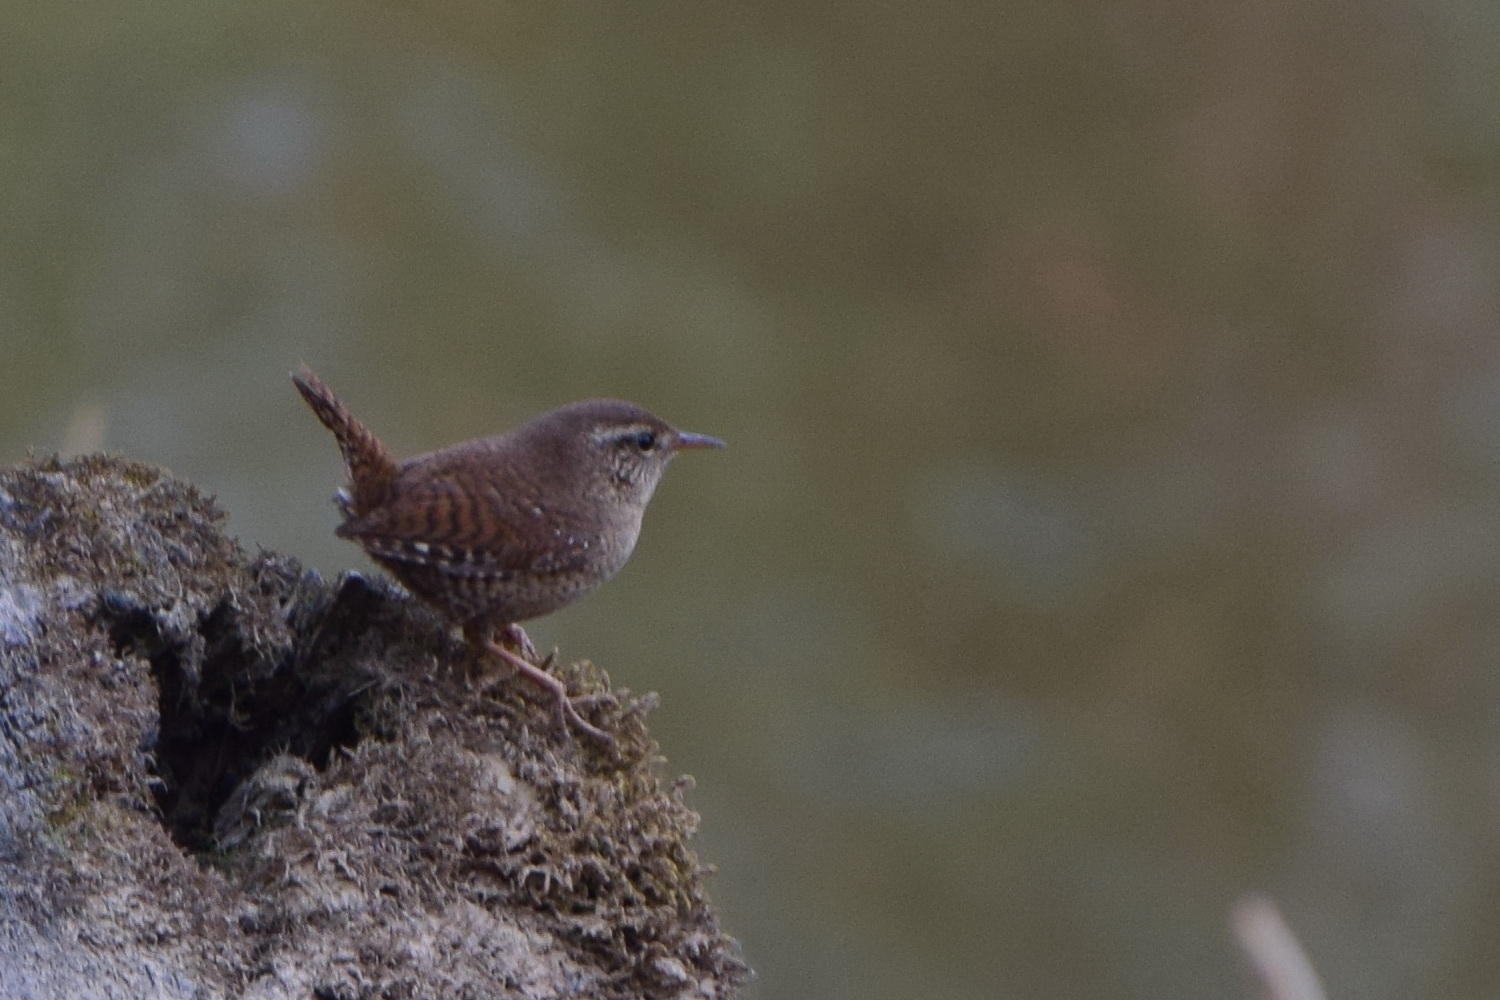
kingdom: Animalia
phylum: Chordata
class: Aves
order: Passeriformes
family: Troglodytidae
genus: Troglodytes
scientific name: Troglodytes troglodytes
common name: Eurasian wren
